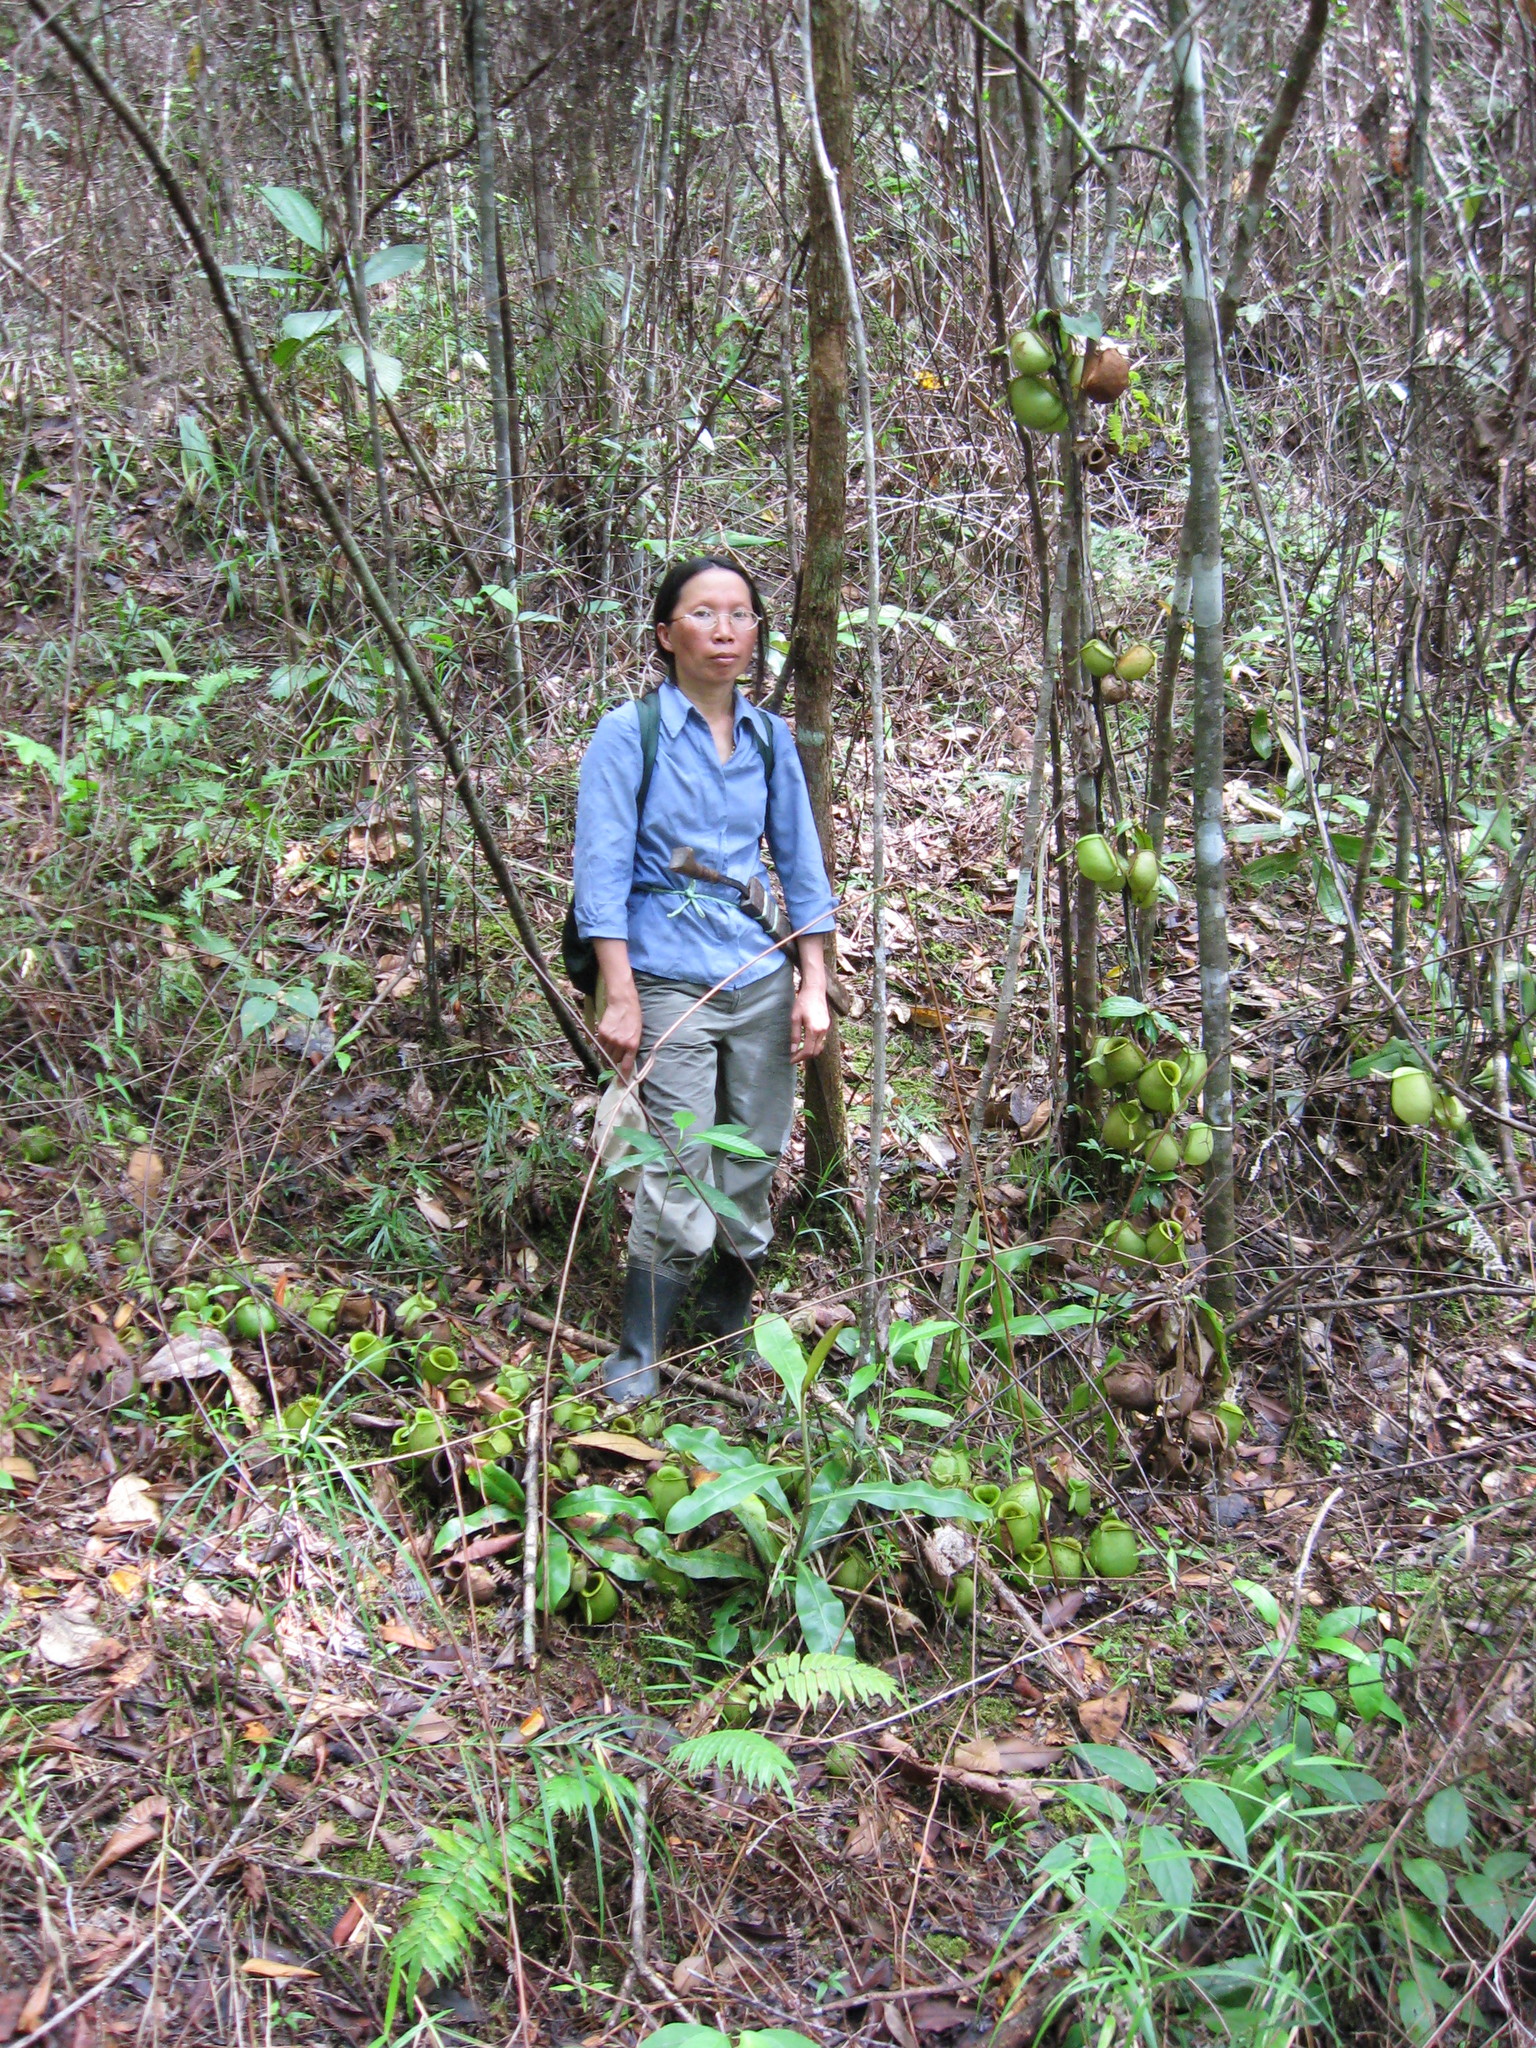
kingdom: Plantae
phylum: Tracheophyta
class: Magnoliopsida
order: Caryophyllales
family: Nepenthaceae
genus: Nepenthes
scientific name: Nepenthes ampullaria
